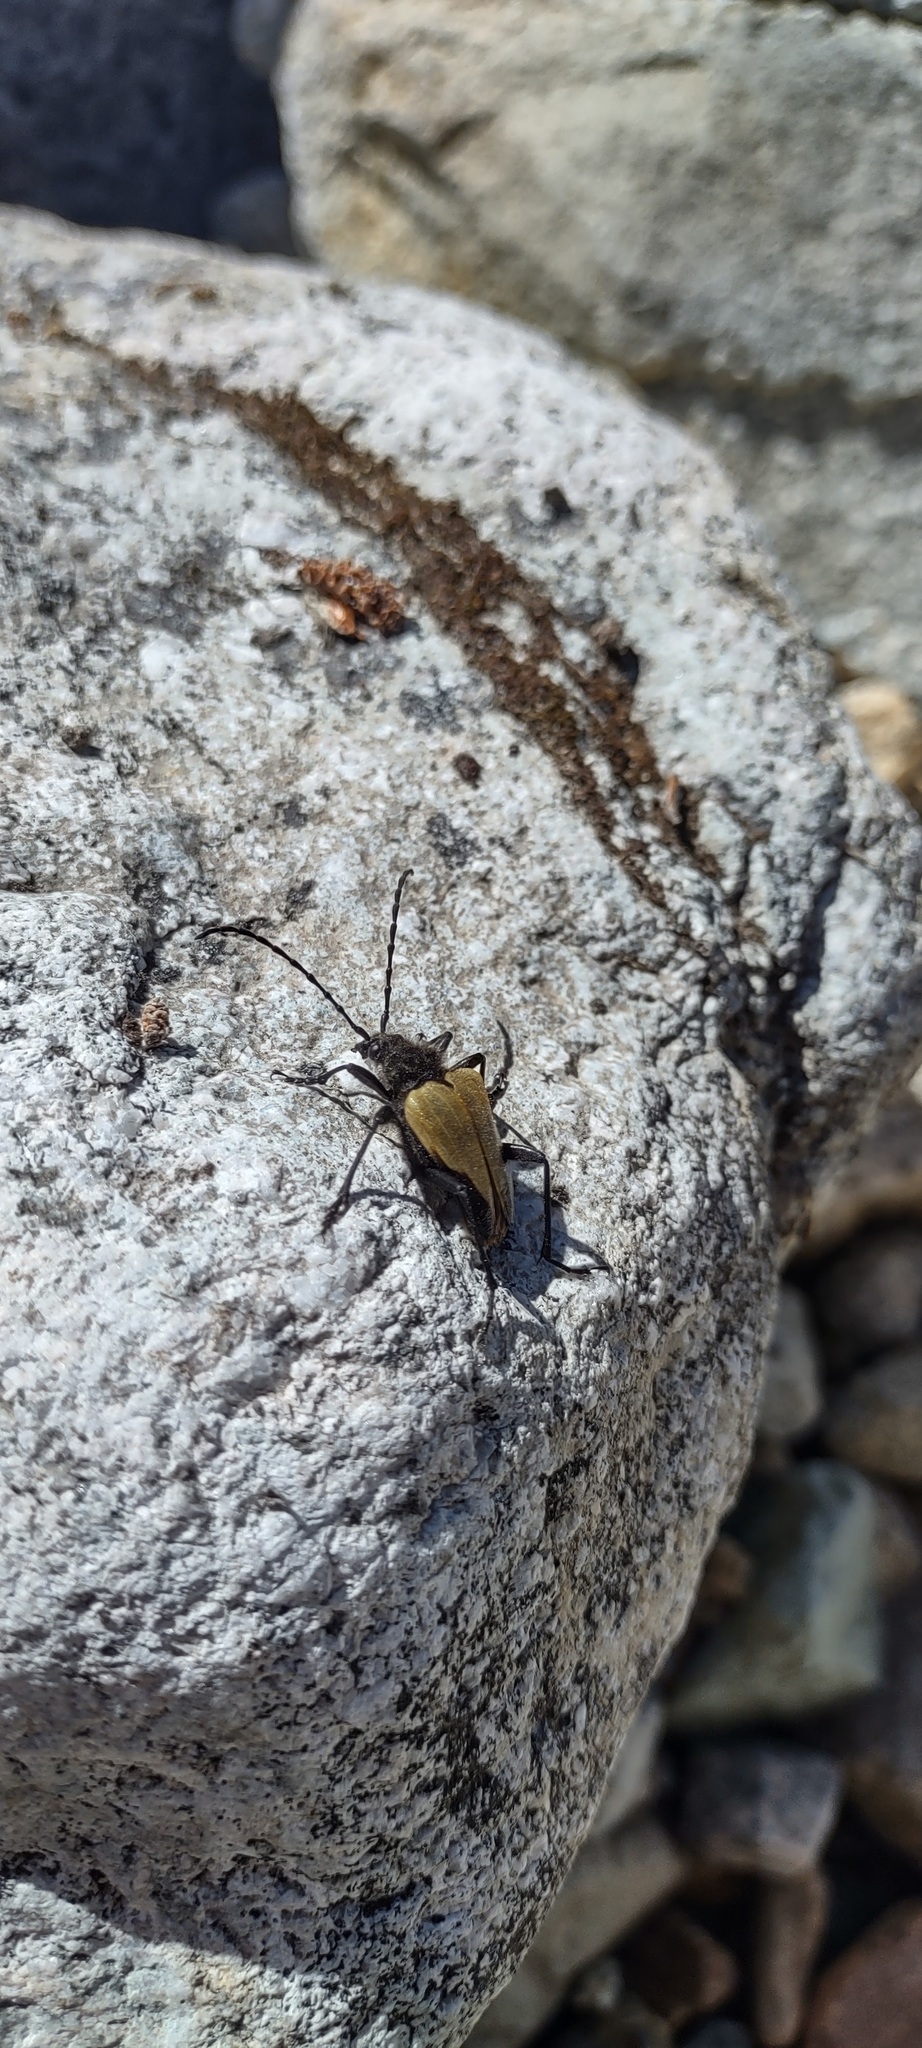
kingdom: Animalia
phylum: Arthropoda
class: Insecta
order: Coleoptera
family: Cerambycidae
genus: Pachyta
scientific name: Pachyta armata
